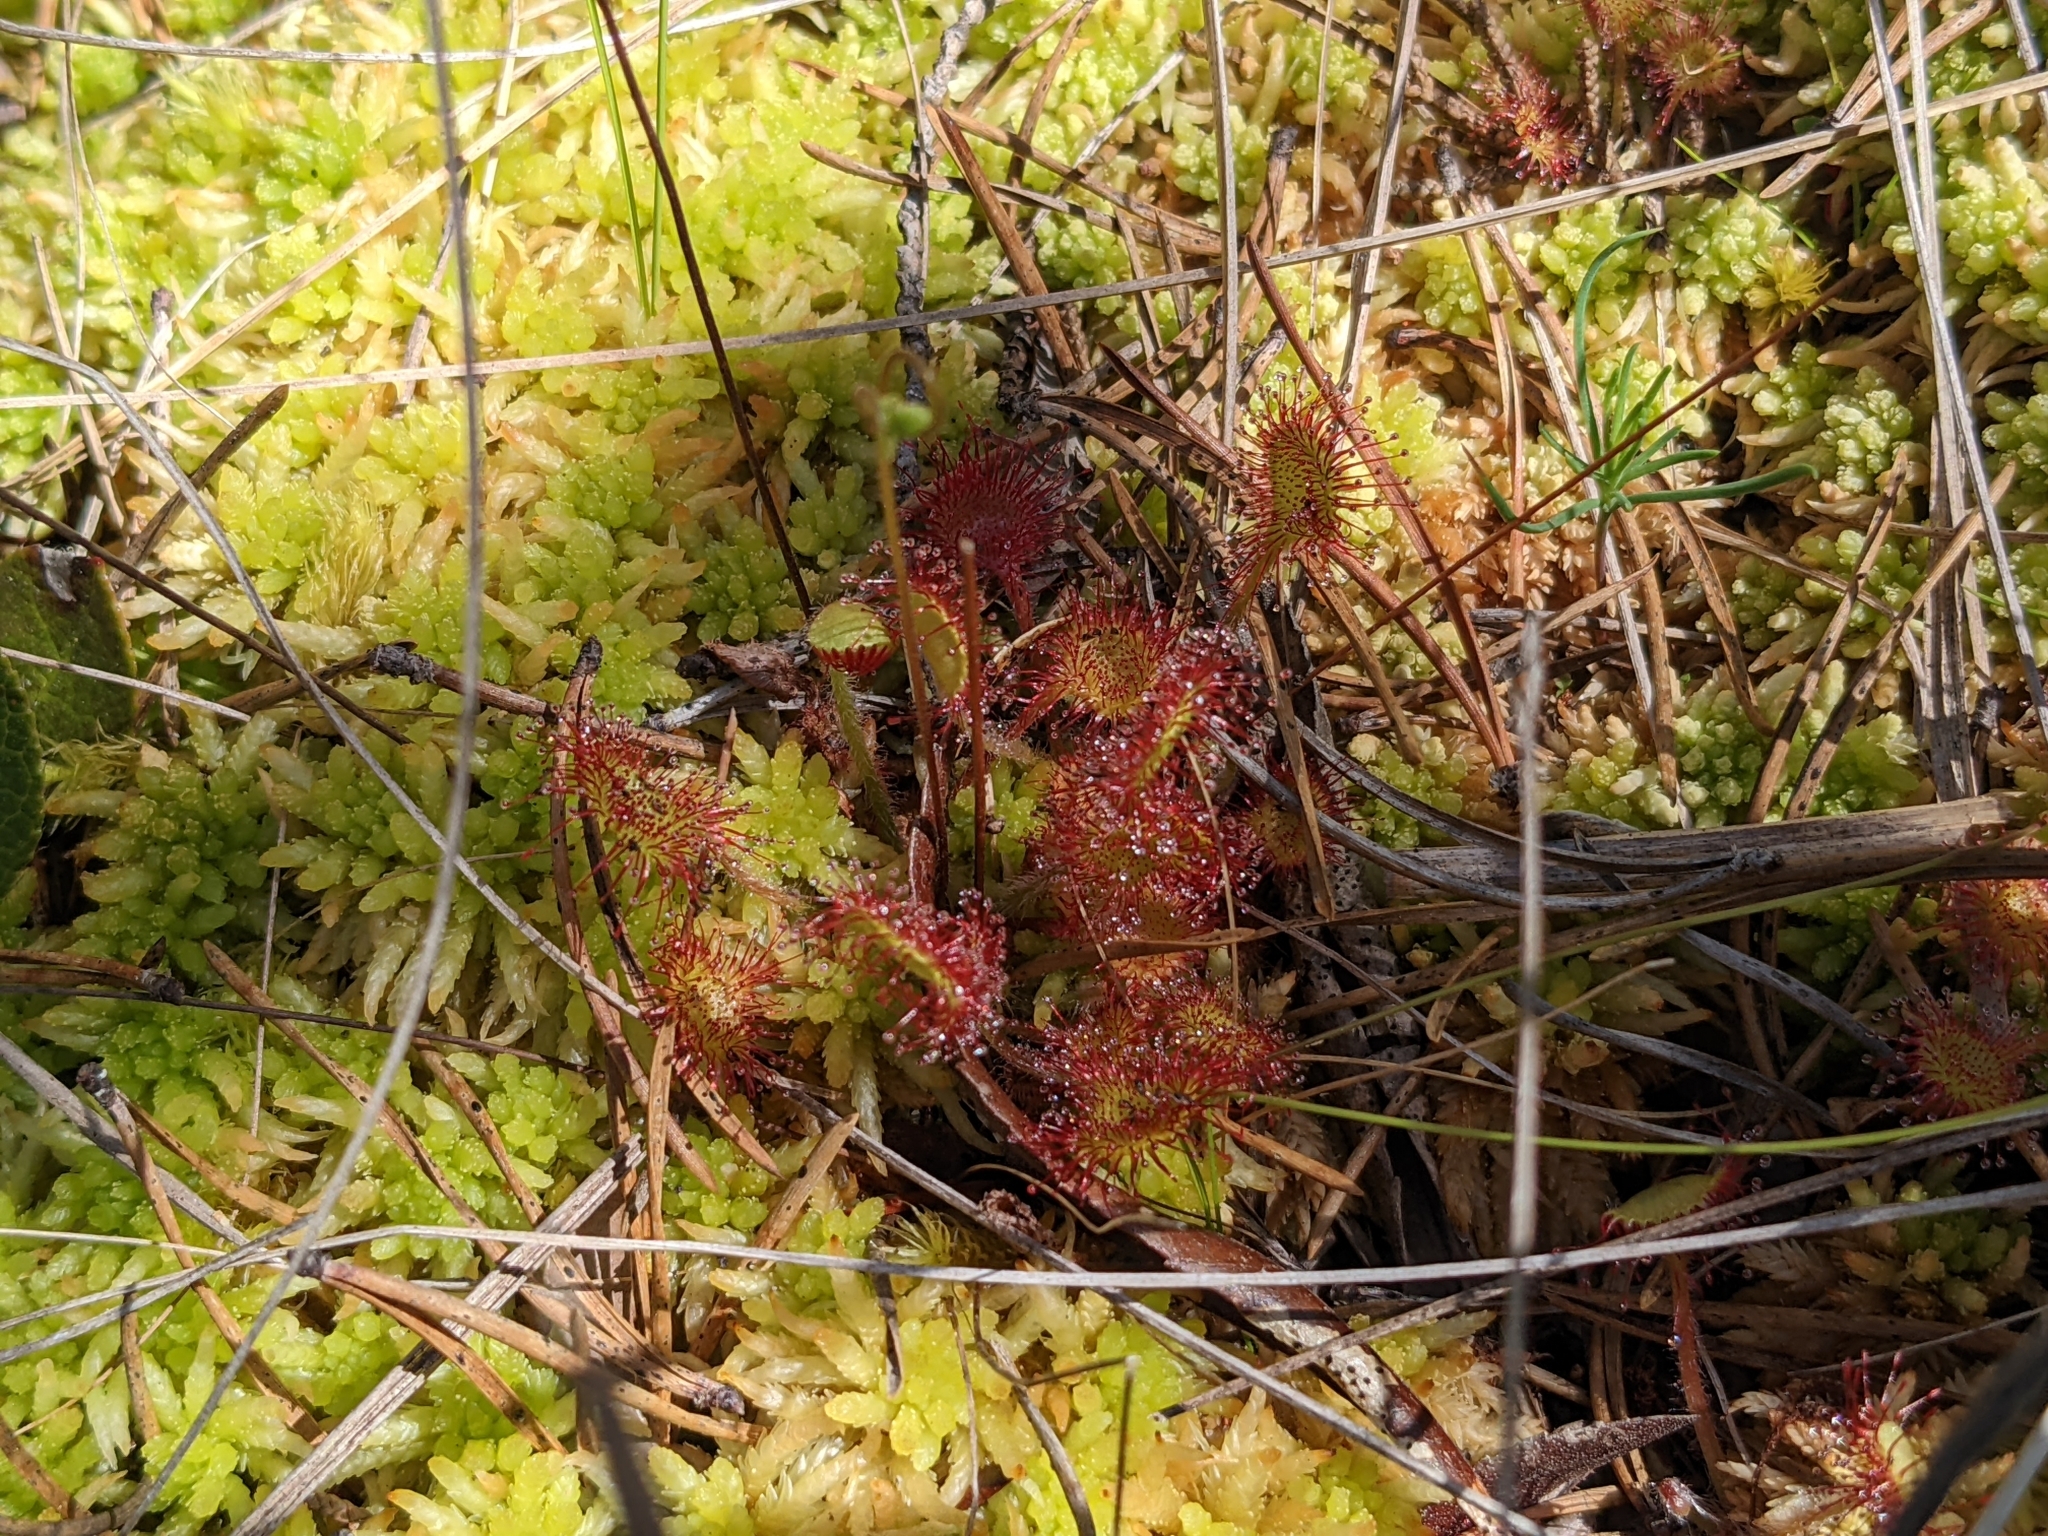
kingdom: Plantae
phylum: Tracheophyta
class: Magnoliopsida
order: Caryophyllales
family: Droseraceae
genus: Drosera
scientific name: Drosera rotundifolia
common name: Round-leaved sundew
